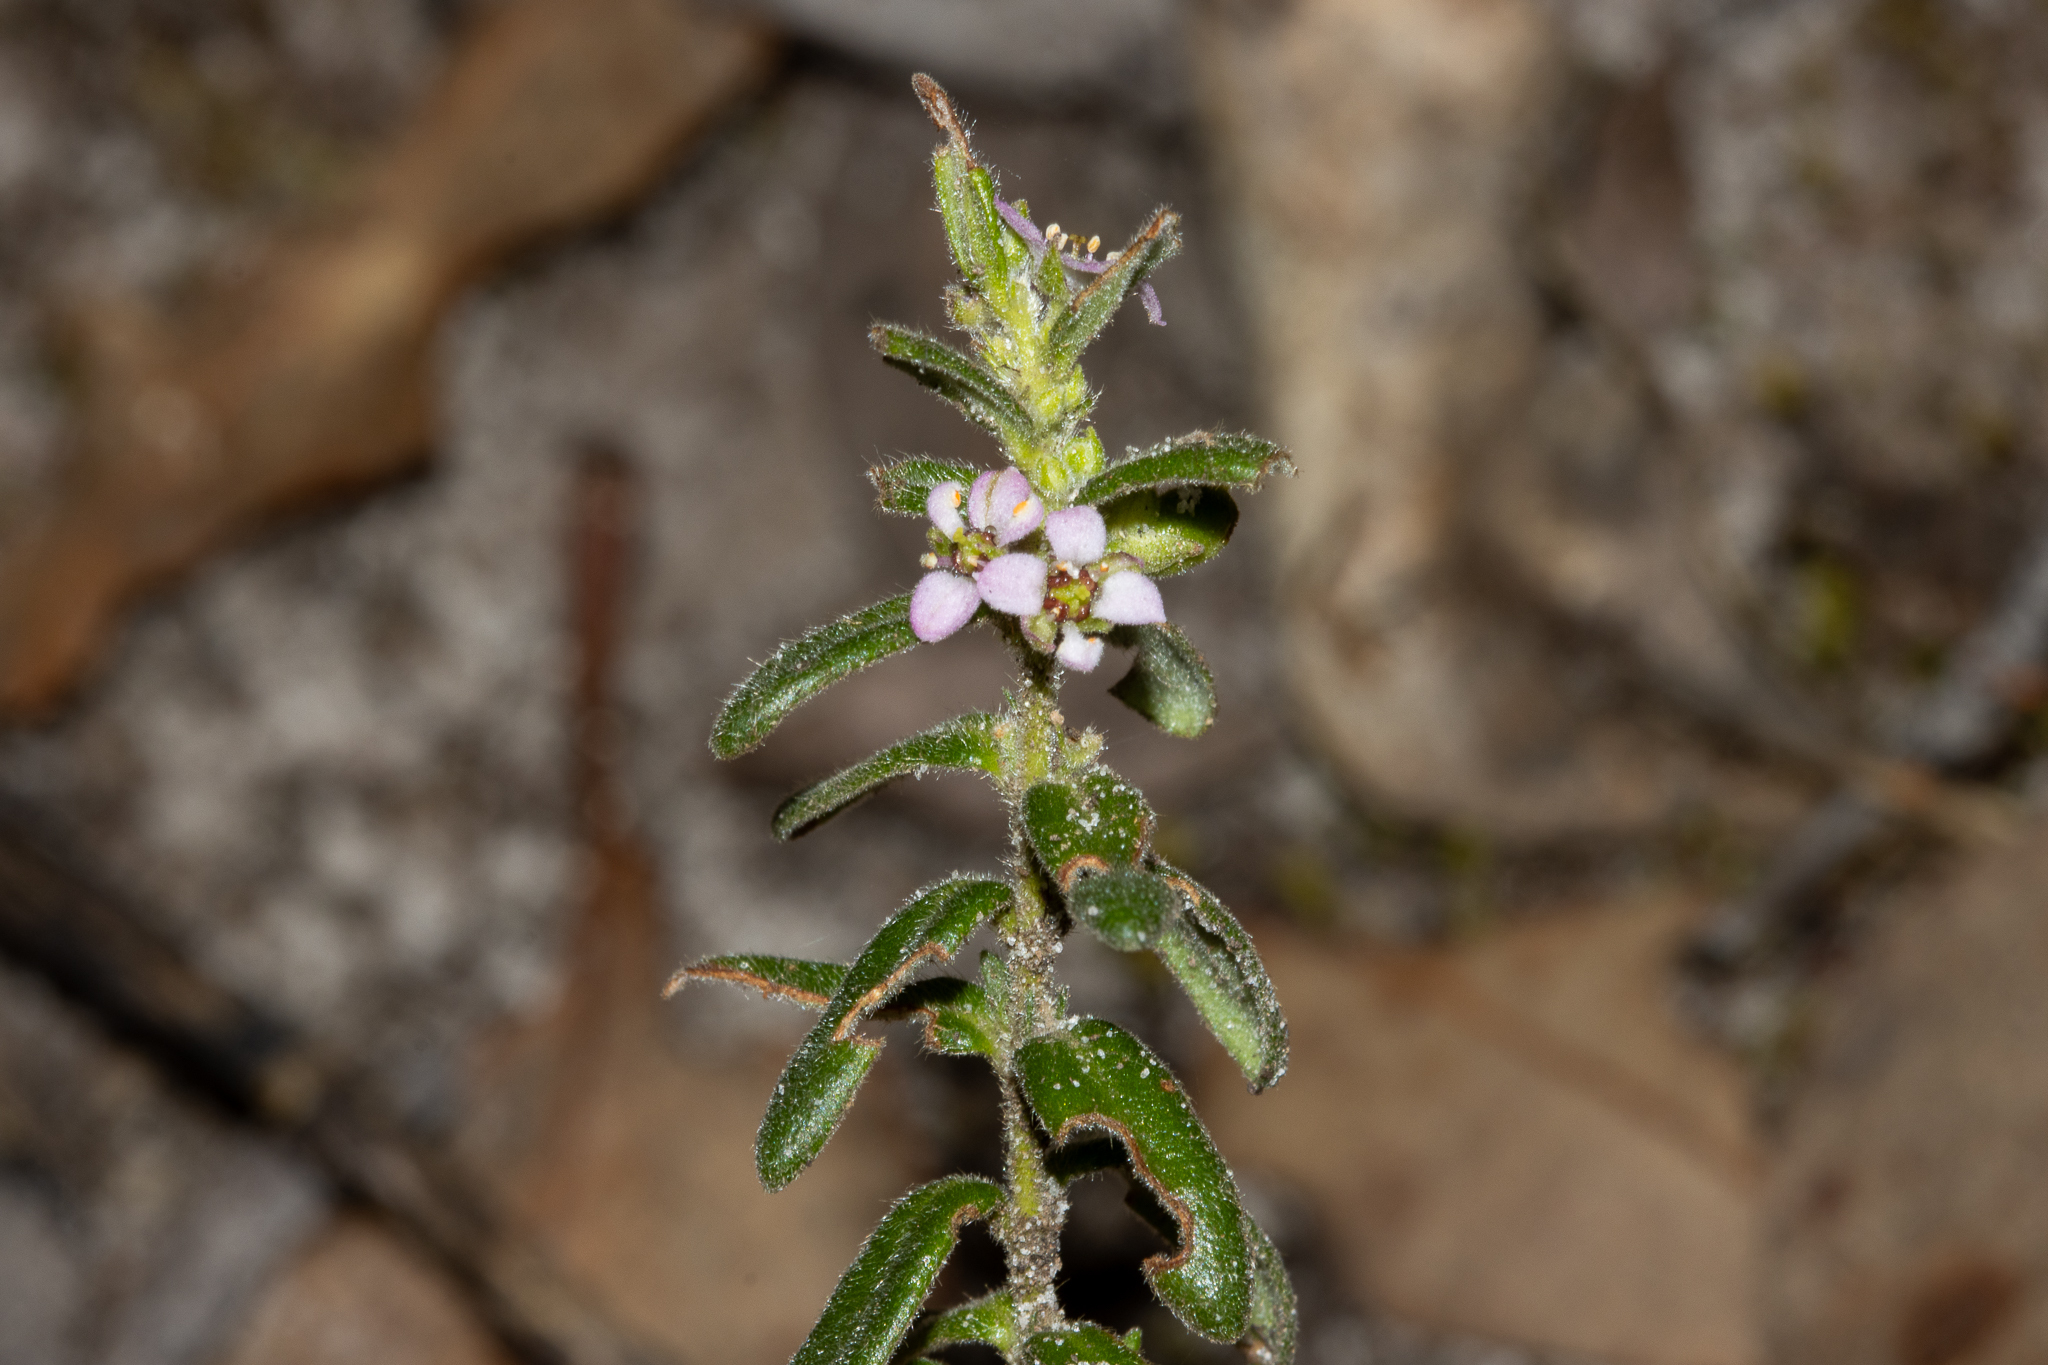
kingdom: Plantae
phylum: Tracheophyta
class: Magnoliopsida
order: Sapindales
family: Rutaceae
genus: Zieria
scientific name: Zieria veronicea
